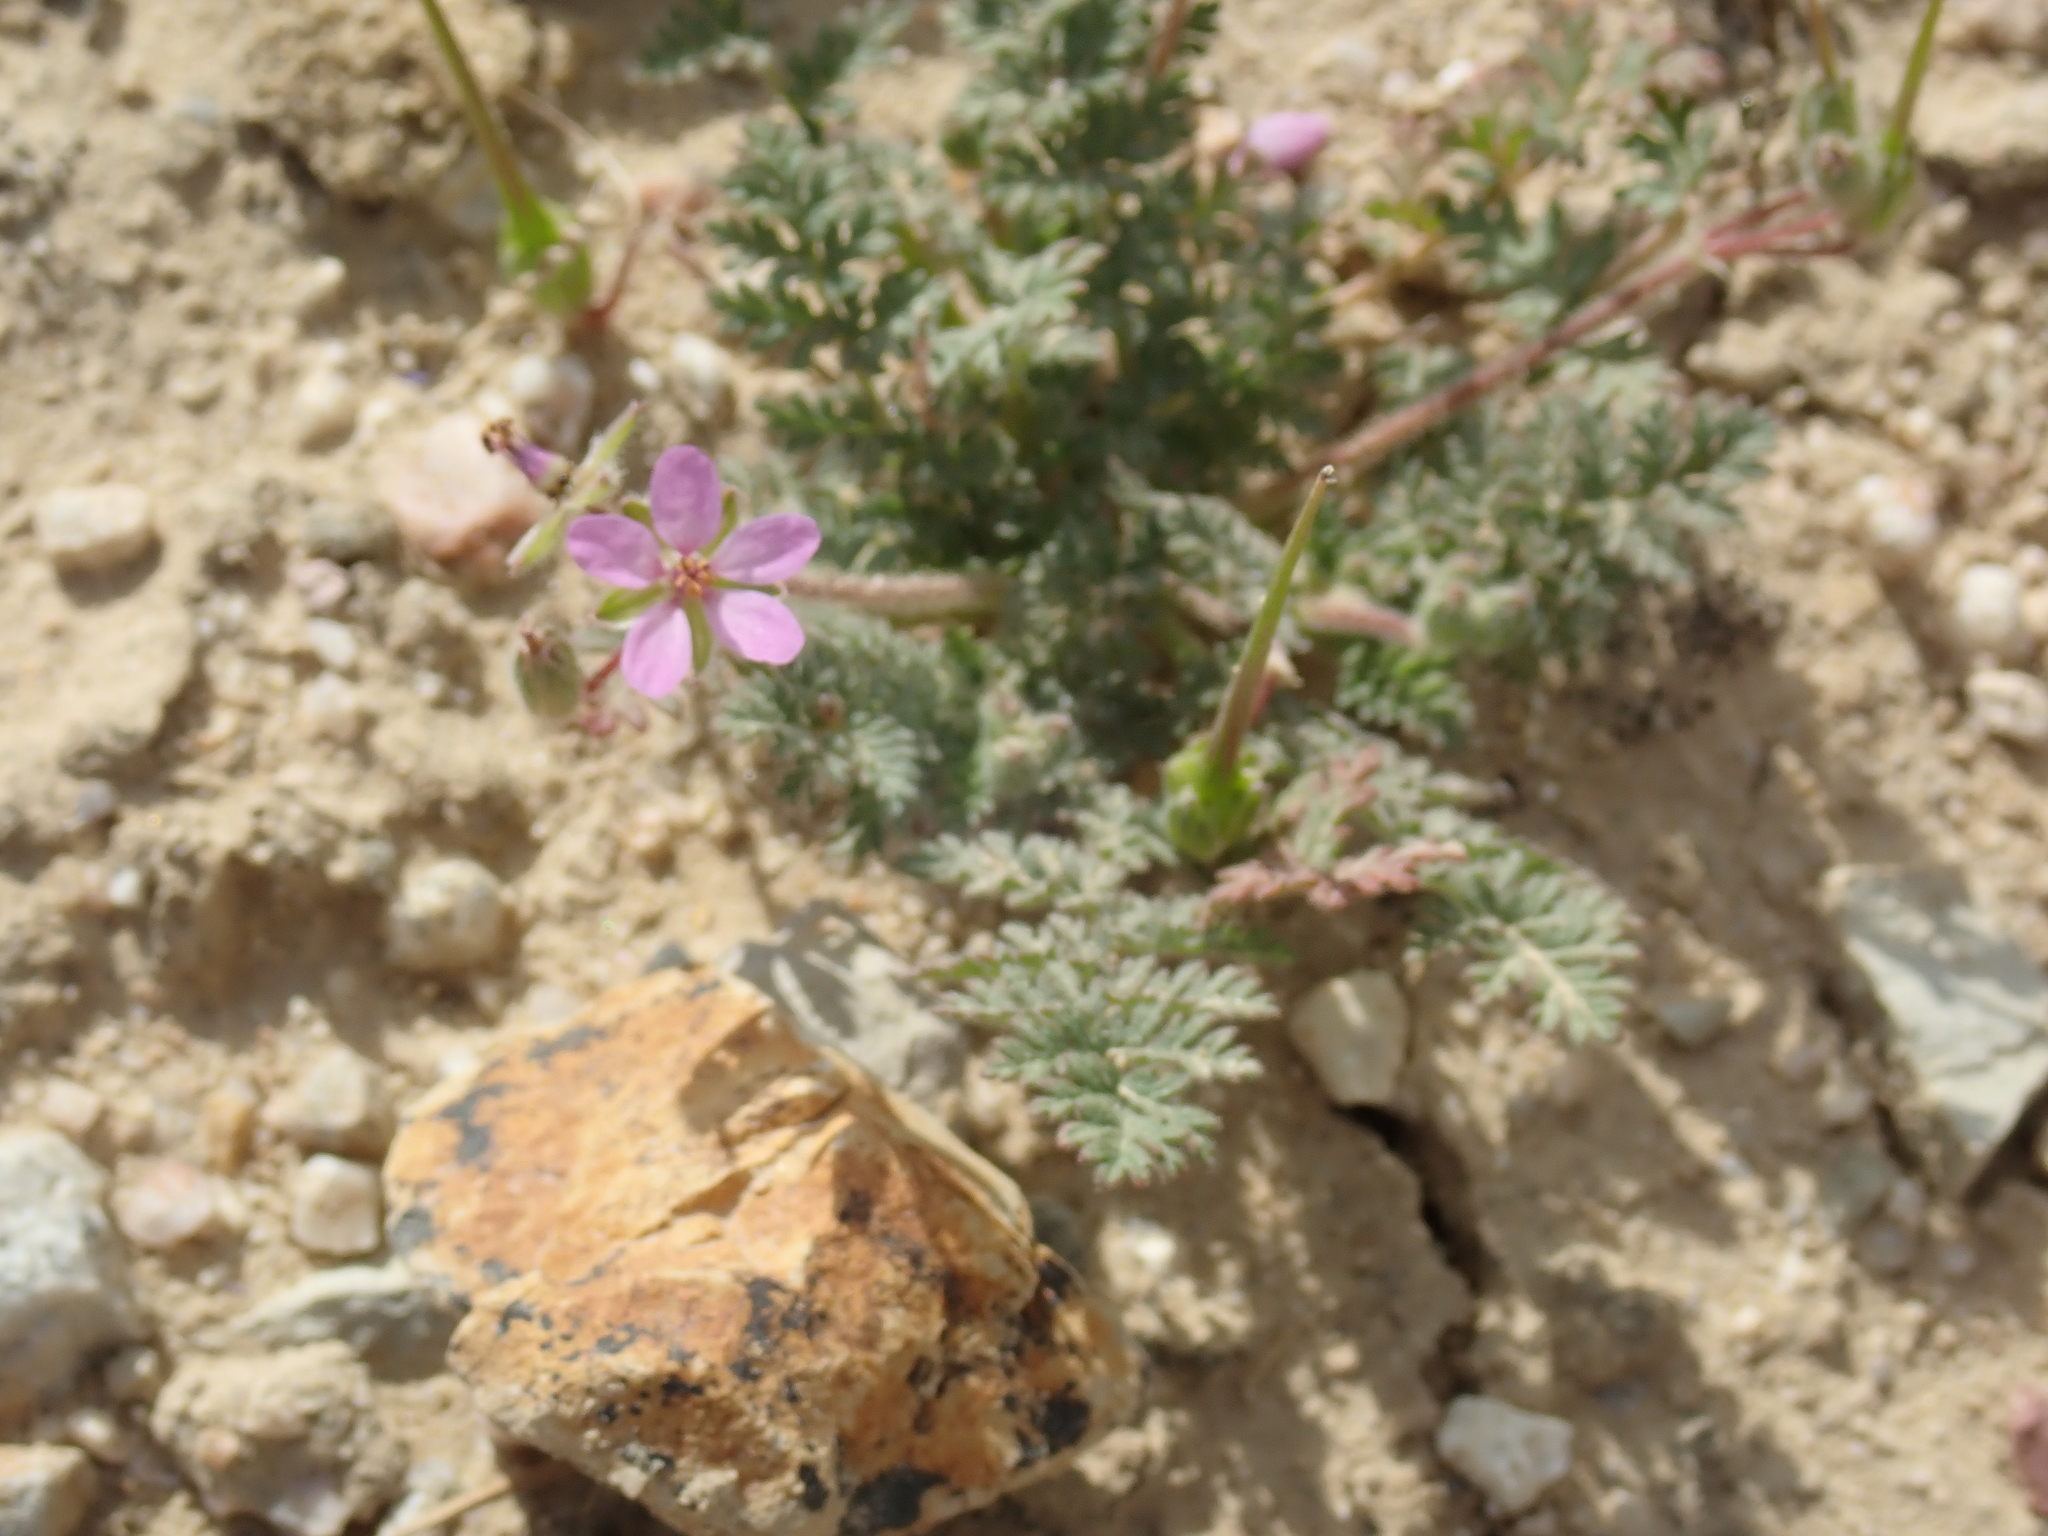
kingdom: Plantae
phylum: Tracheophyta
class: Magnoliopsida
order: Geraniales
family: Geraniaceae
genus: Erodium
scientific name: Erodium cicutarium
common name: Common stork's-bill
